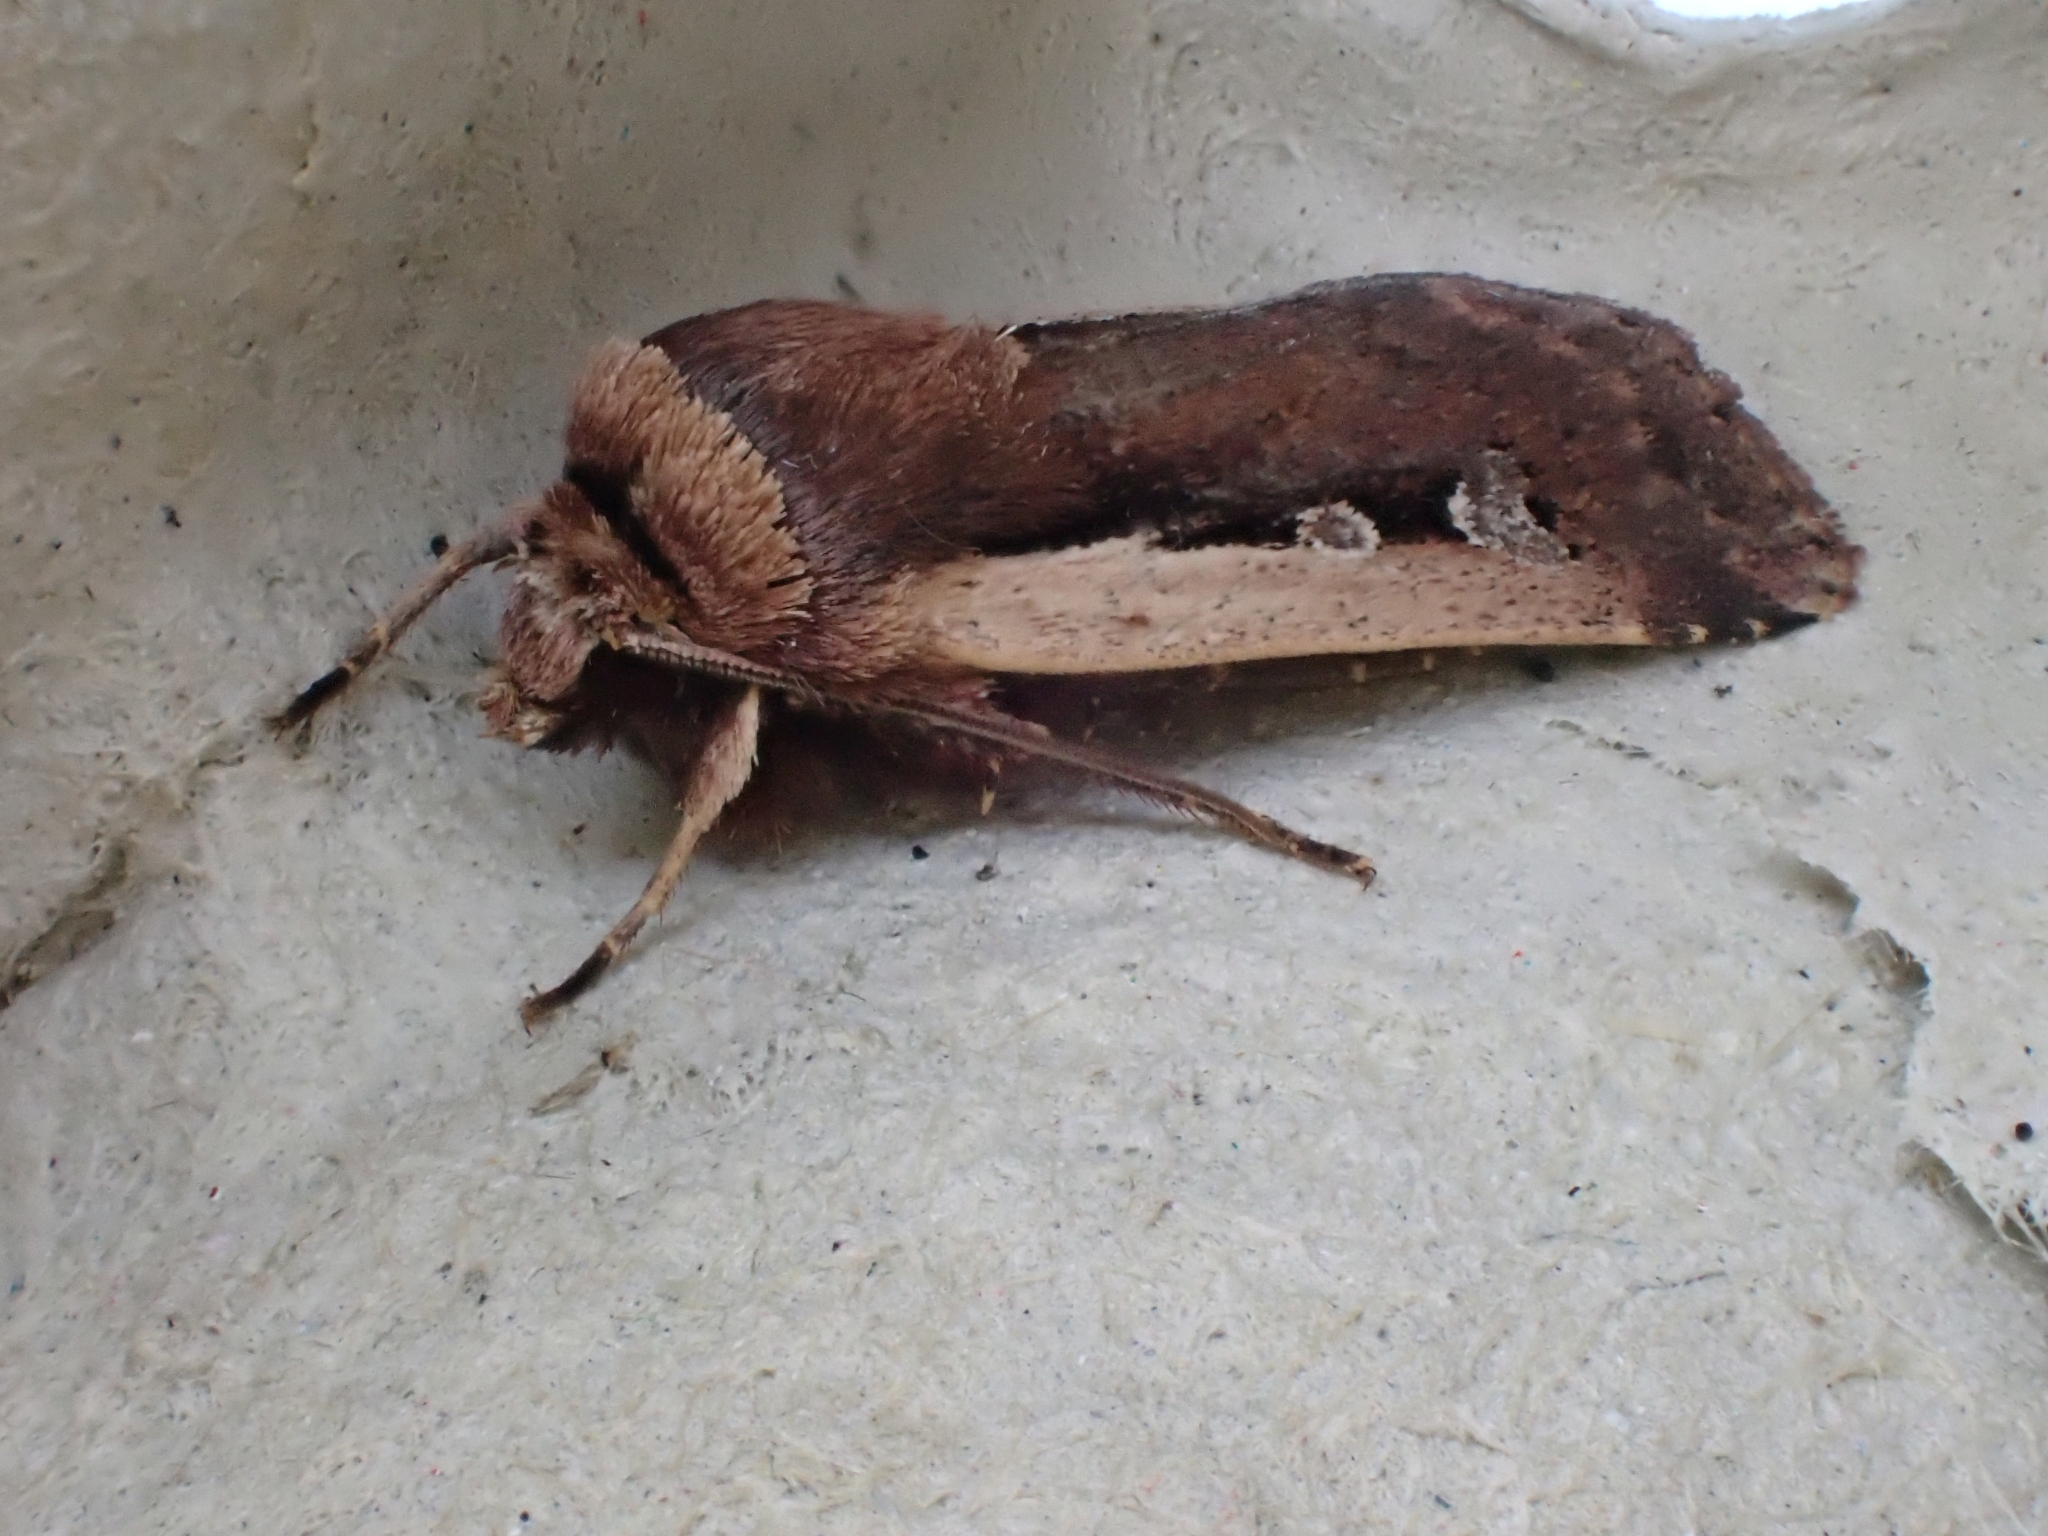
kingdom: Animalia
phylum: Arthropoda
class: Insecta
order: Lepidoptera
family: Noctuidae
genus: Ochropleura
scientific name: Ochropleura plecta
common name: Flame shoulder
